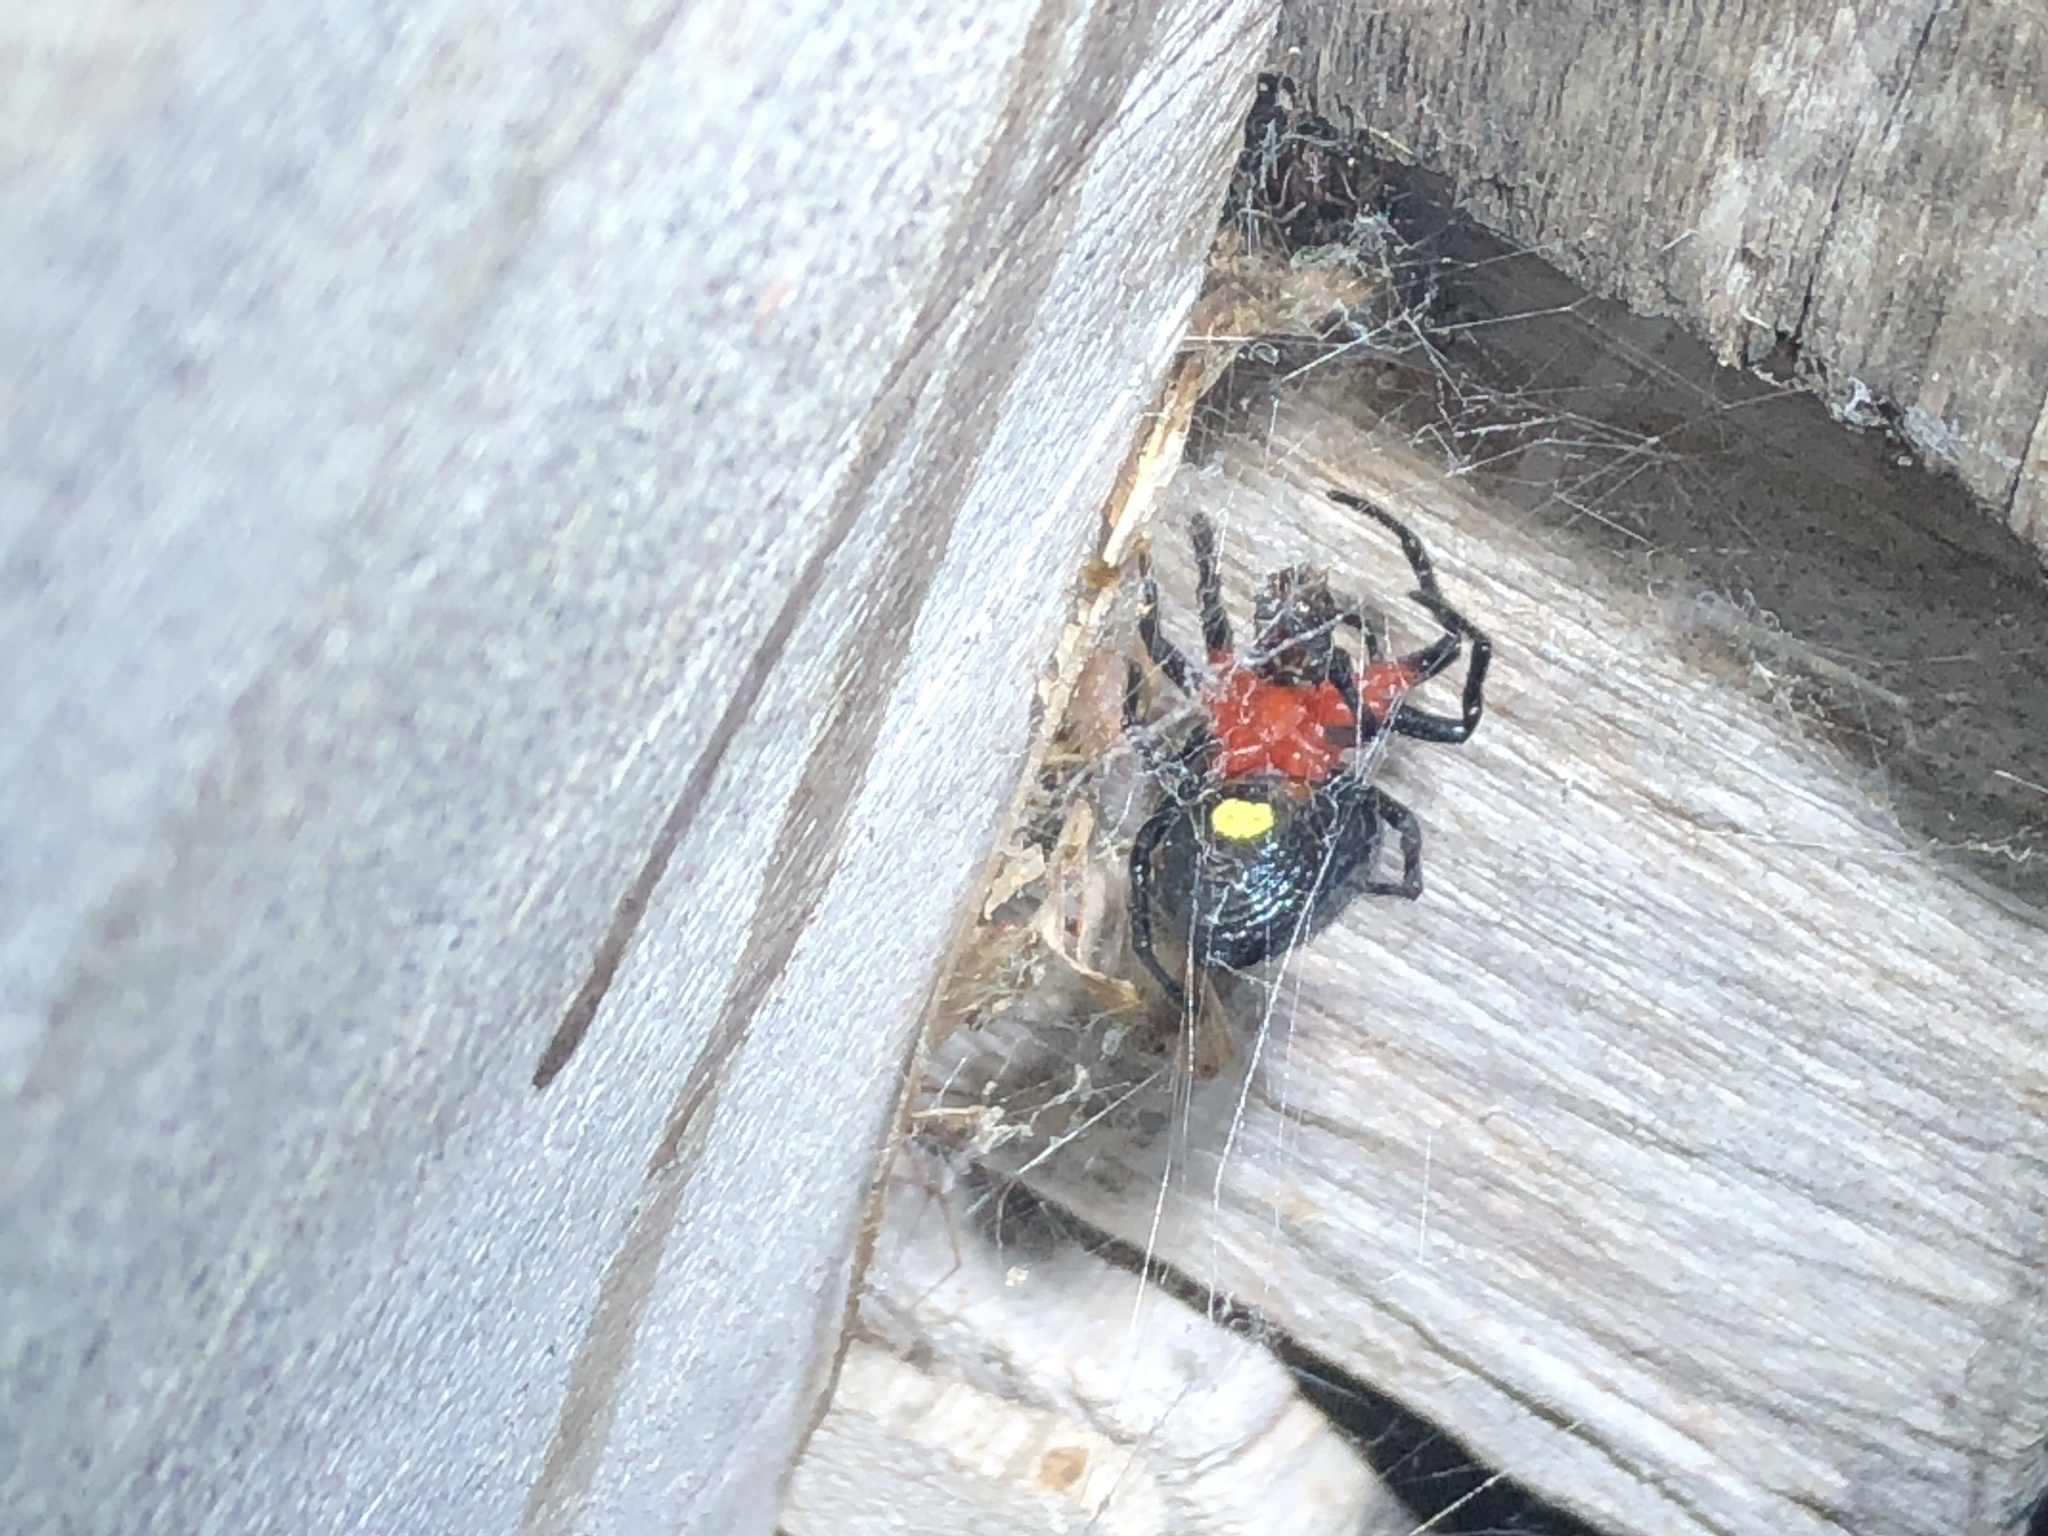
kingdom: Animalia
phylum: Arthropoda
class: Arachnida
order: Araneae
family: Araneidae
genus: Alpaida
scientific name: Alpaida acuta
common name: Orb weavers
